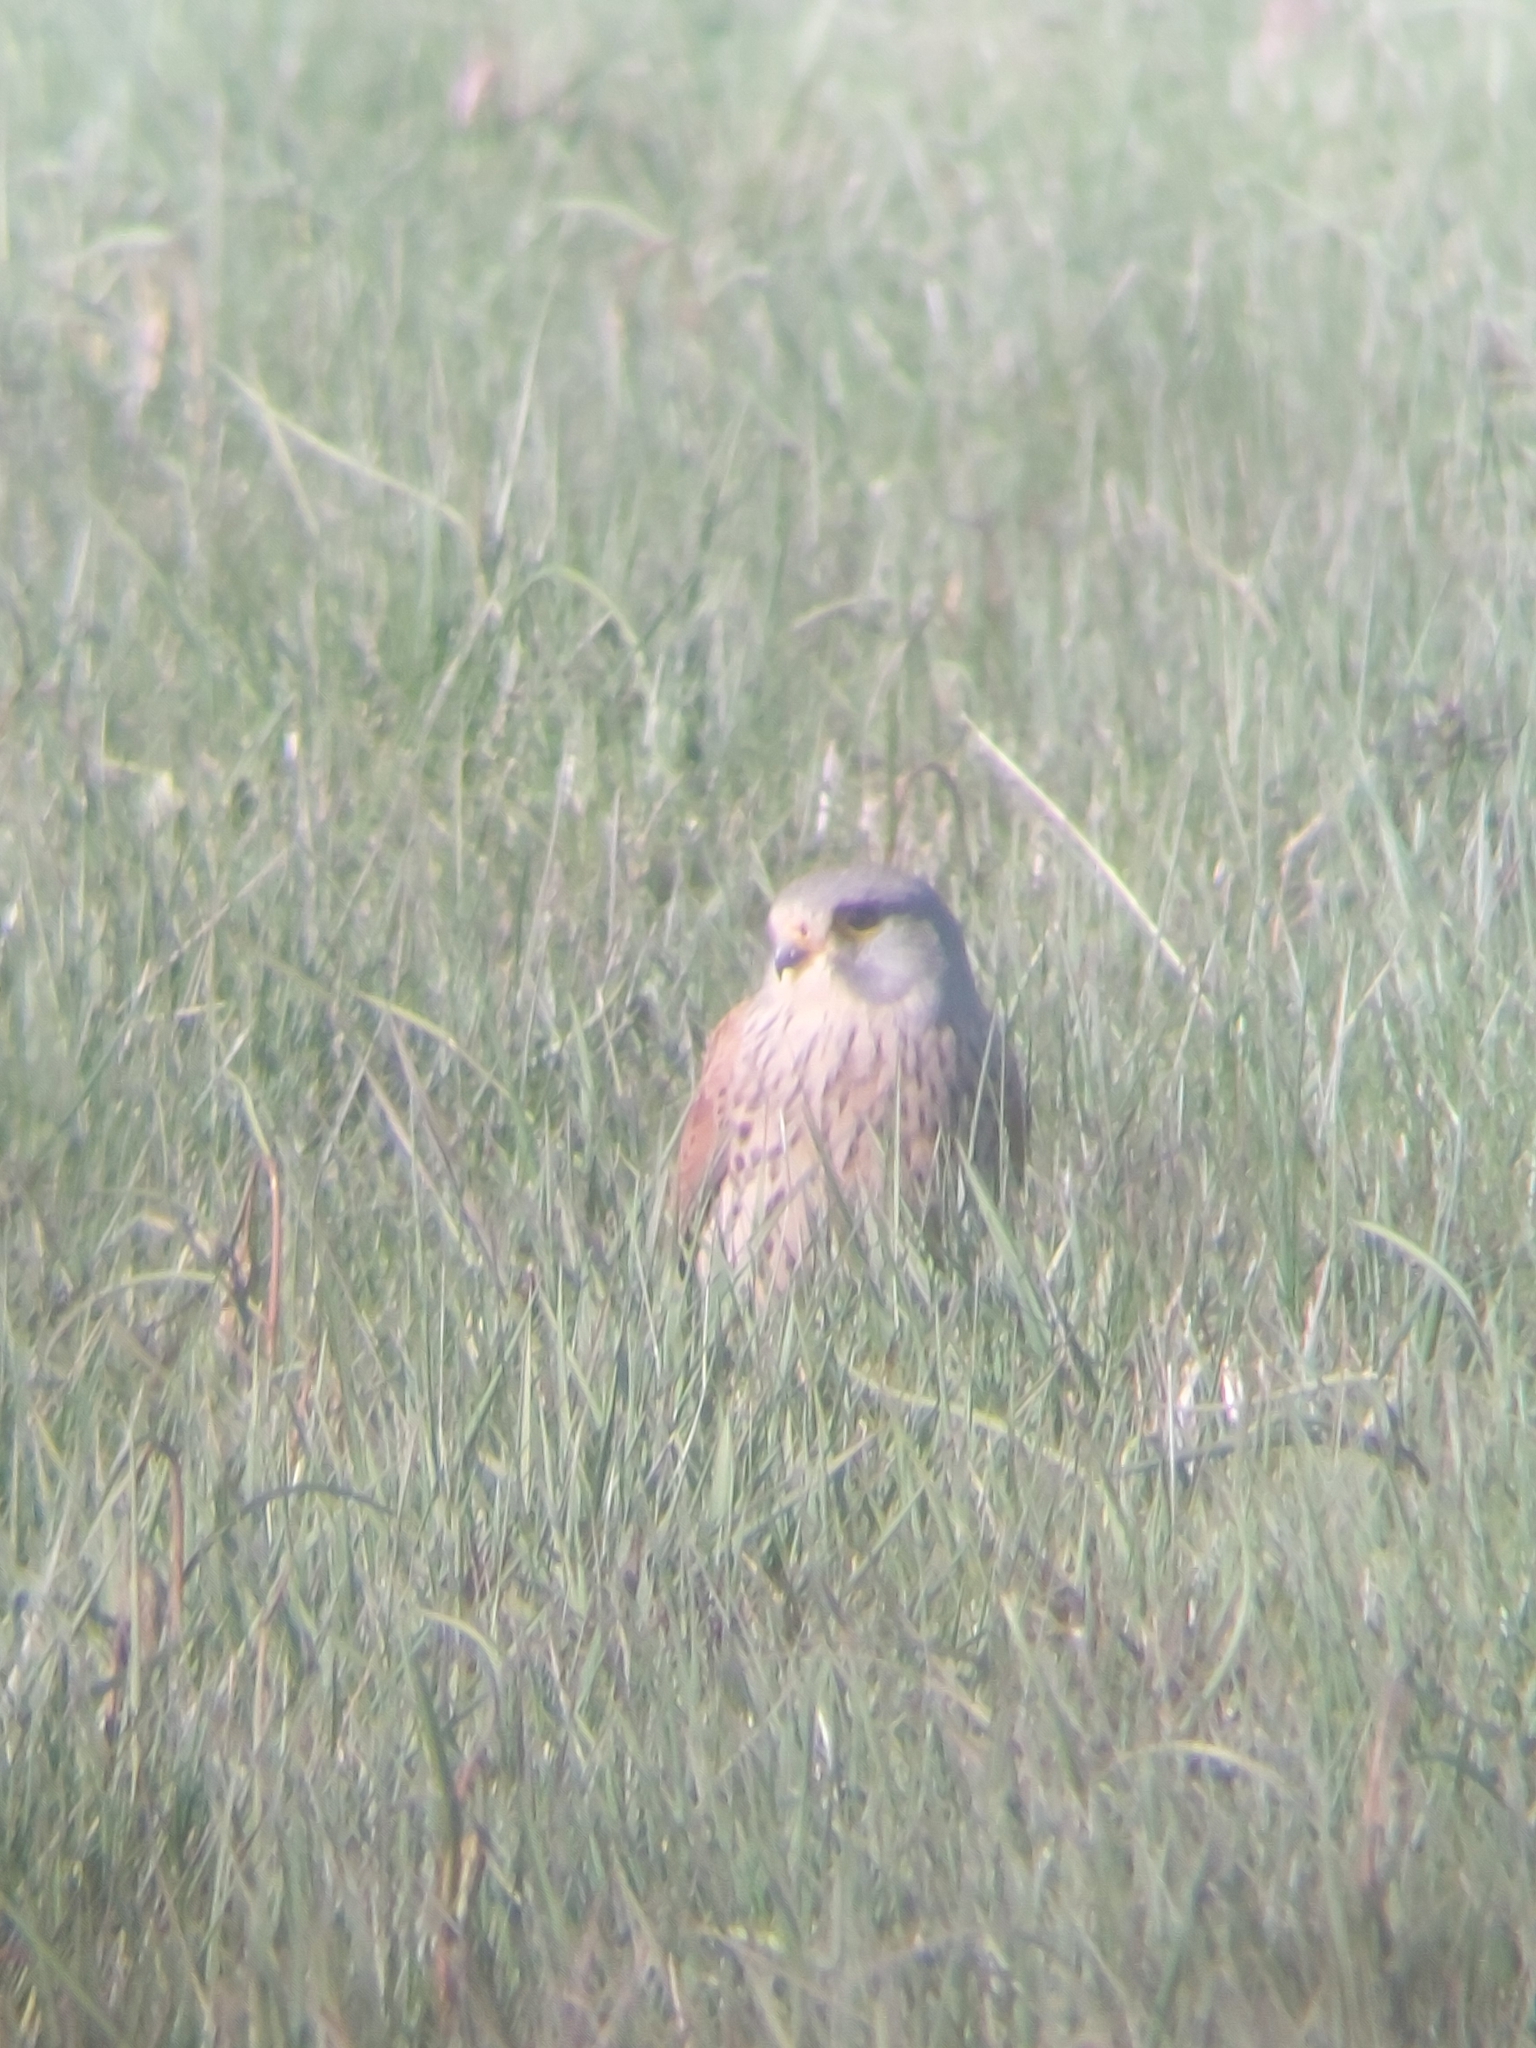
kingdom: Animalia
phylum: Chordata
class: Aves
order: Falconiformes
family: Falconidae
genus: Falco
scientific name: Falco tinnunculus
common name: Common kestrel
